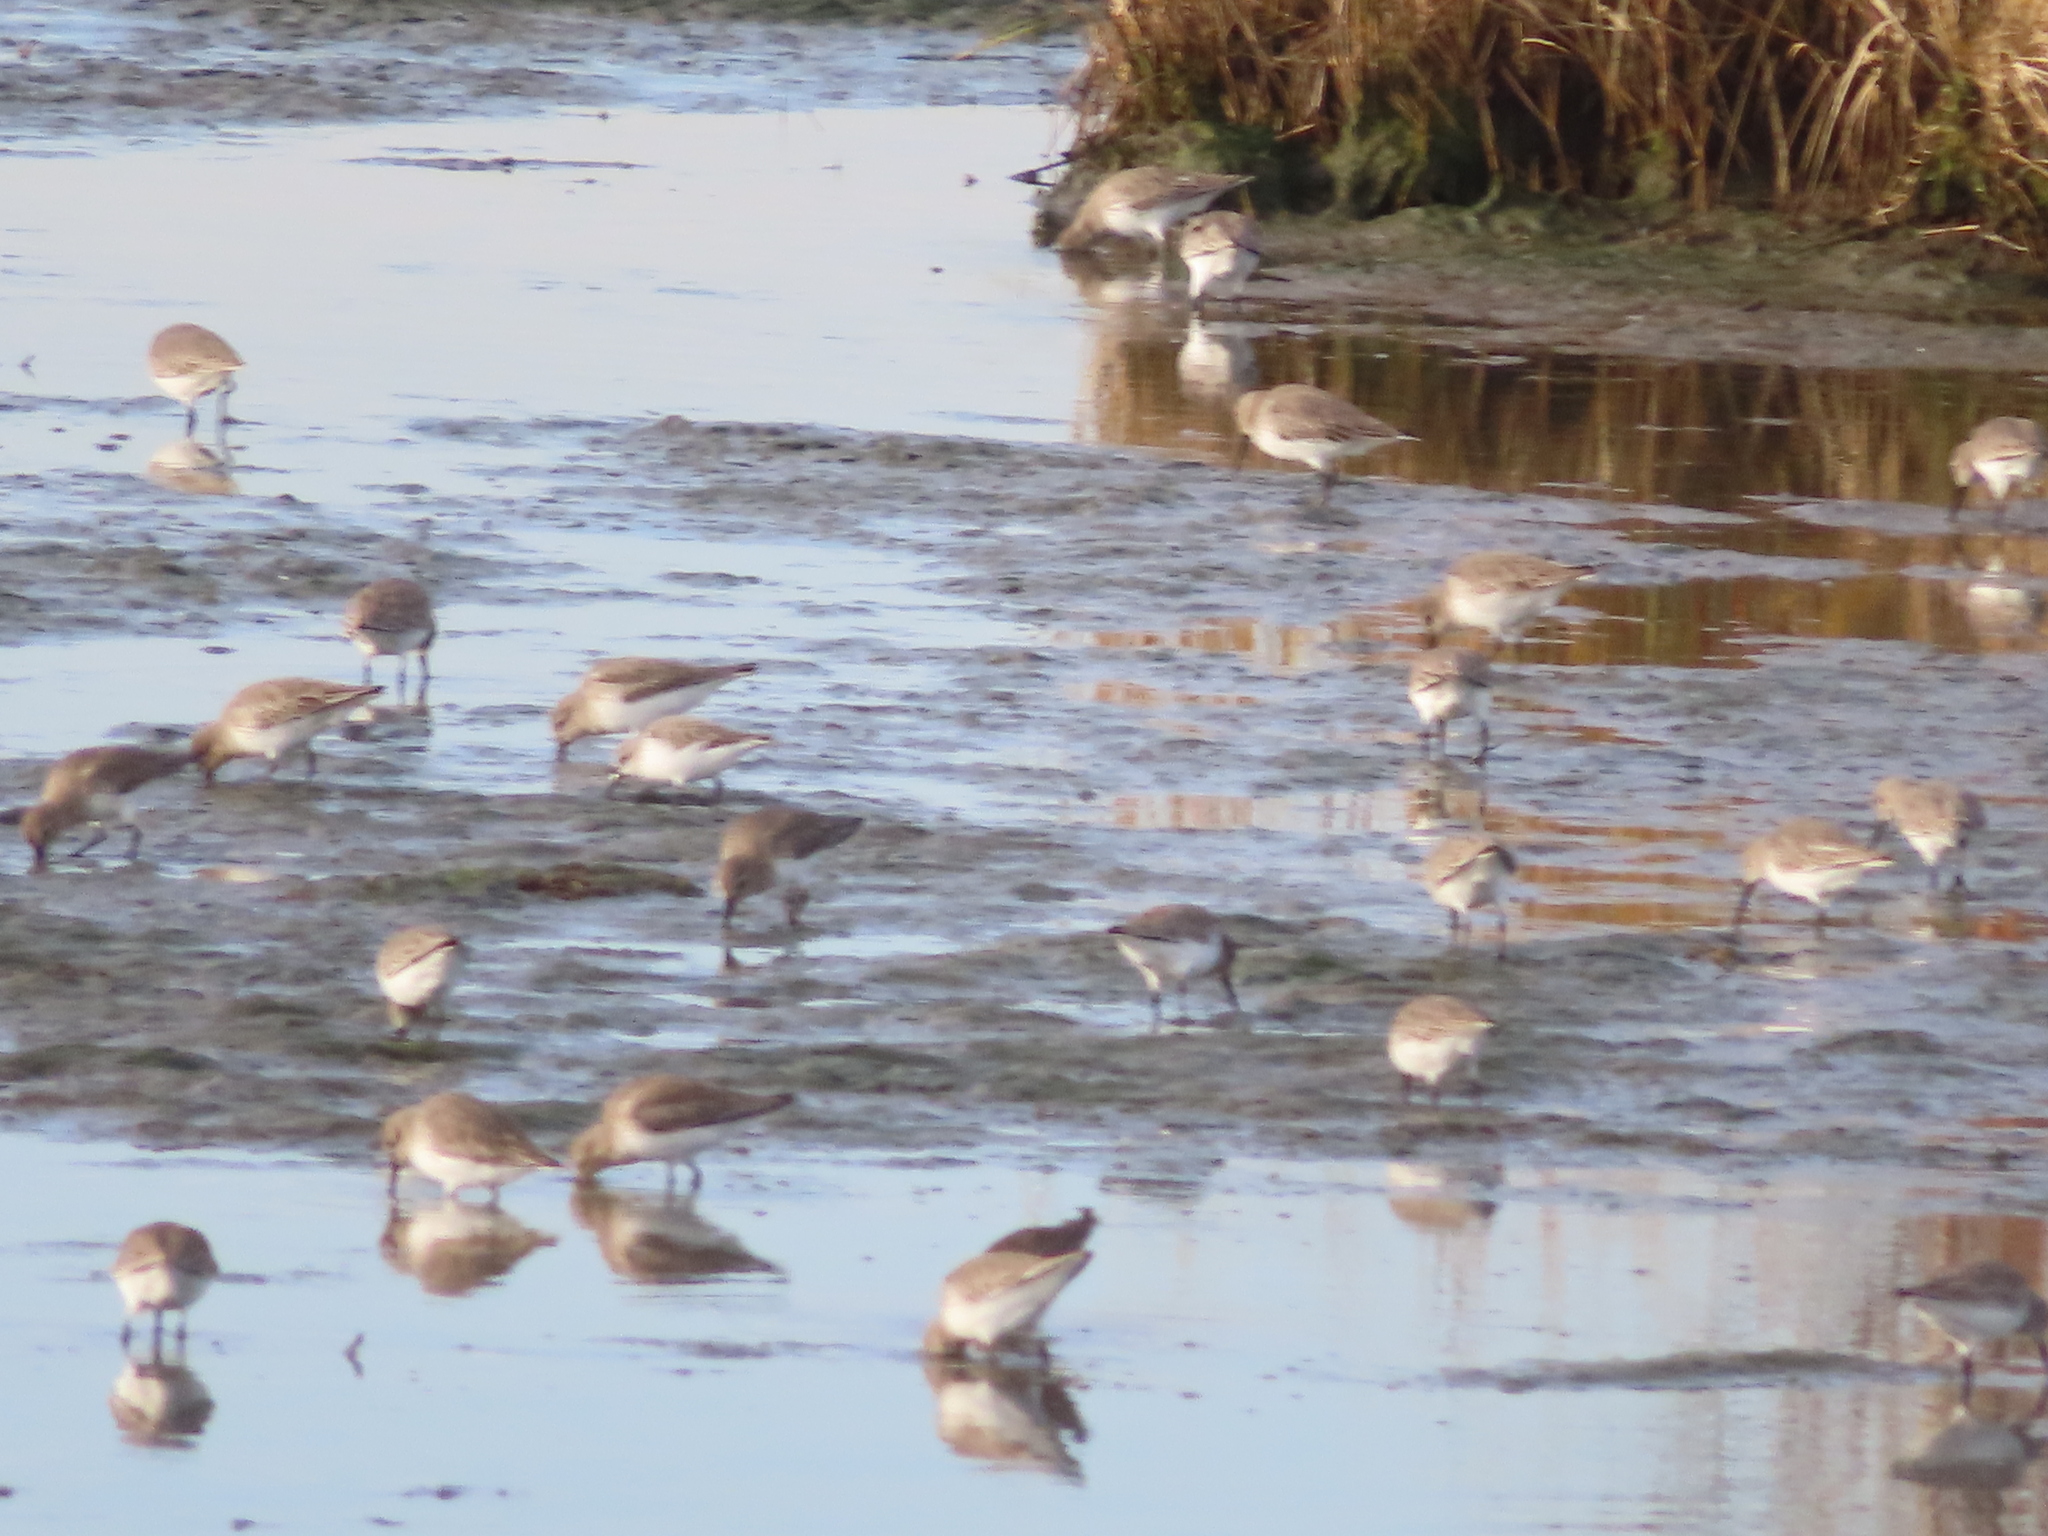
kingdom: Animalia
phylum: Chordata
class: Aves
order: Charadriiformes
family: Scolopacidae
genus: Calidris
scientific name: Calidris alpina
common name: Dunlin
